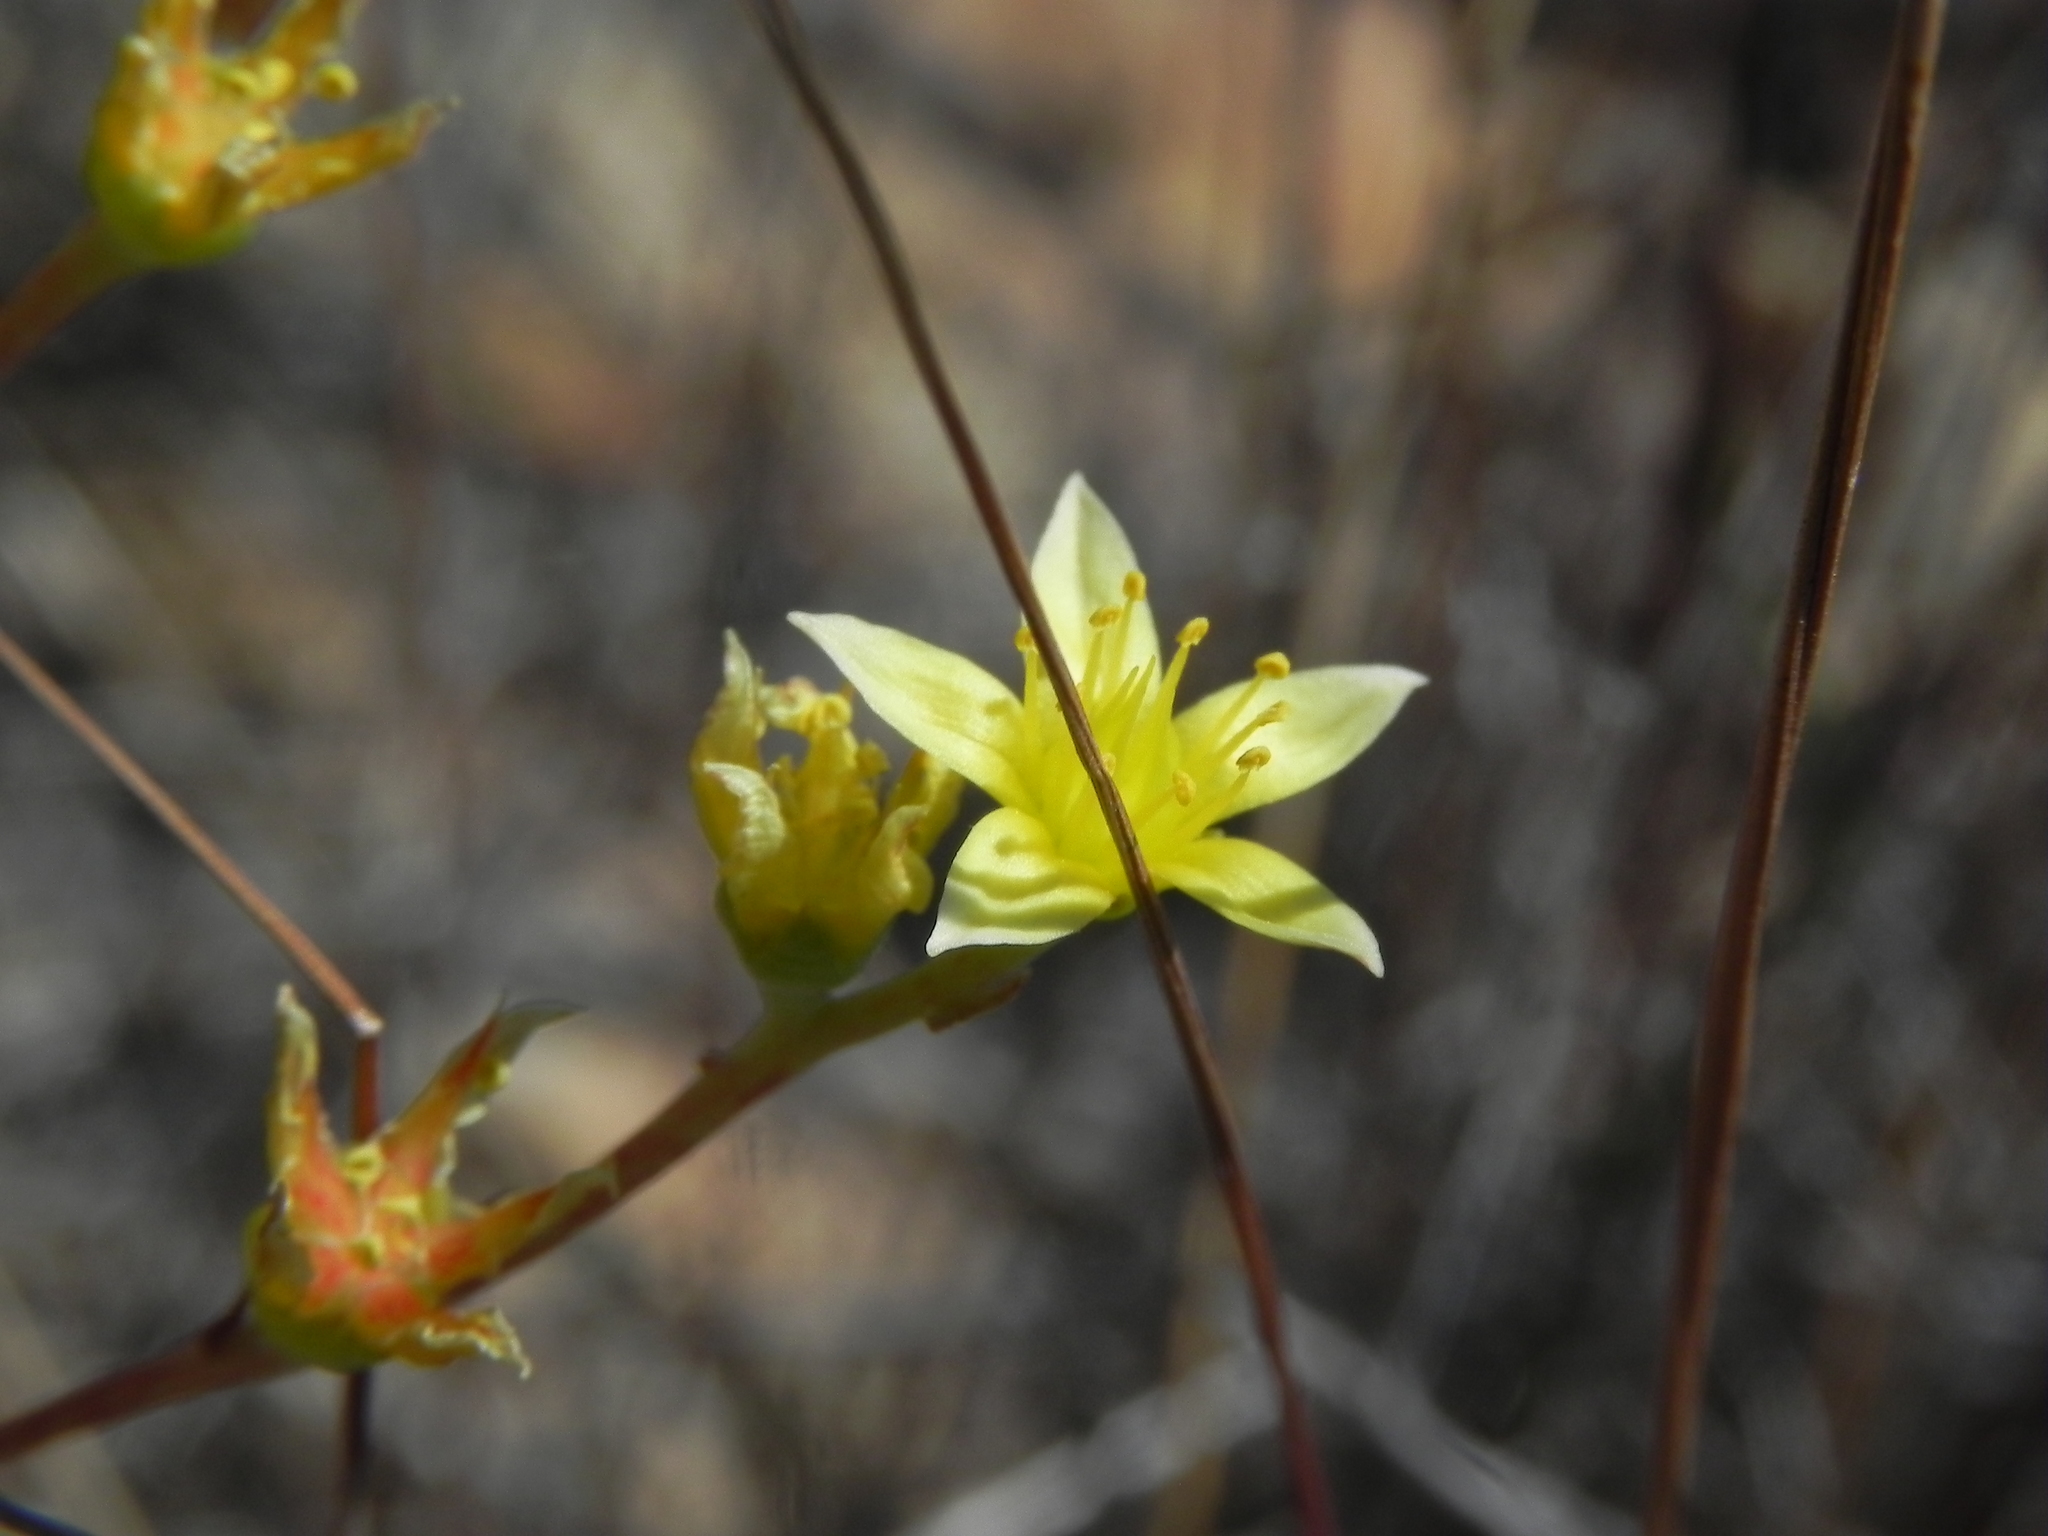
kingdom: Plantae
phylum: Tracheophyta
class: Magnoliopsida
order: Saxifragales
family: Crassulaceae
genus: Dudleya
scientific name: Dudleya variegata
